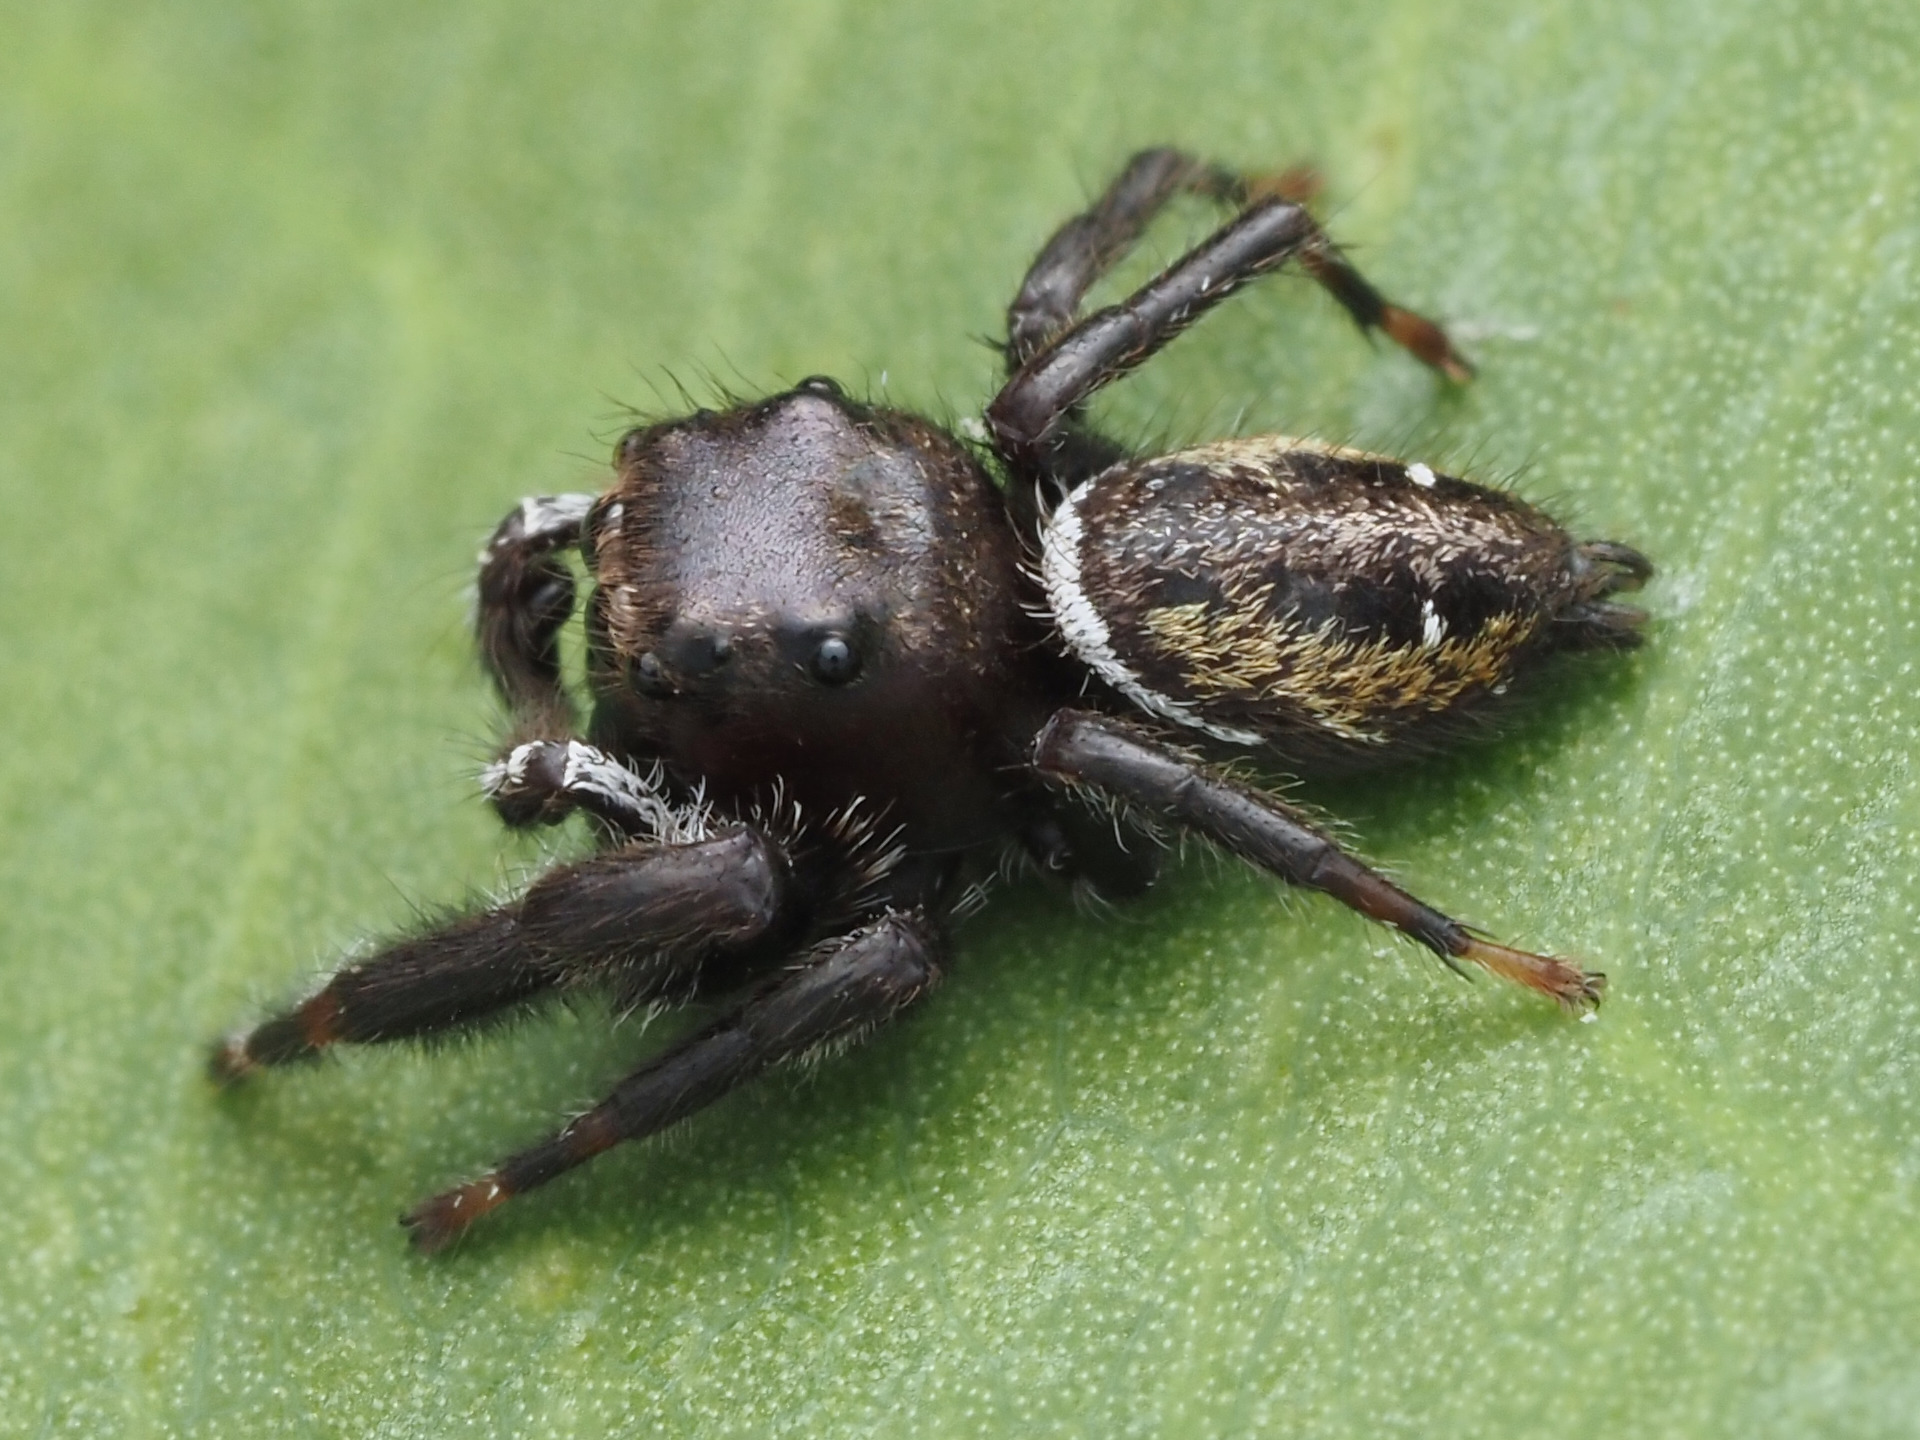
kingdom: Animalia
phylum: Arthropoda
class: Arachnida
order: Araneae
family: Salticidae
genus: Phidippus
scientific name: Phidippus clarus
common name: Brilliant jumping spider
